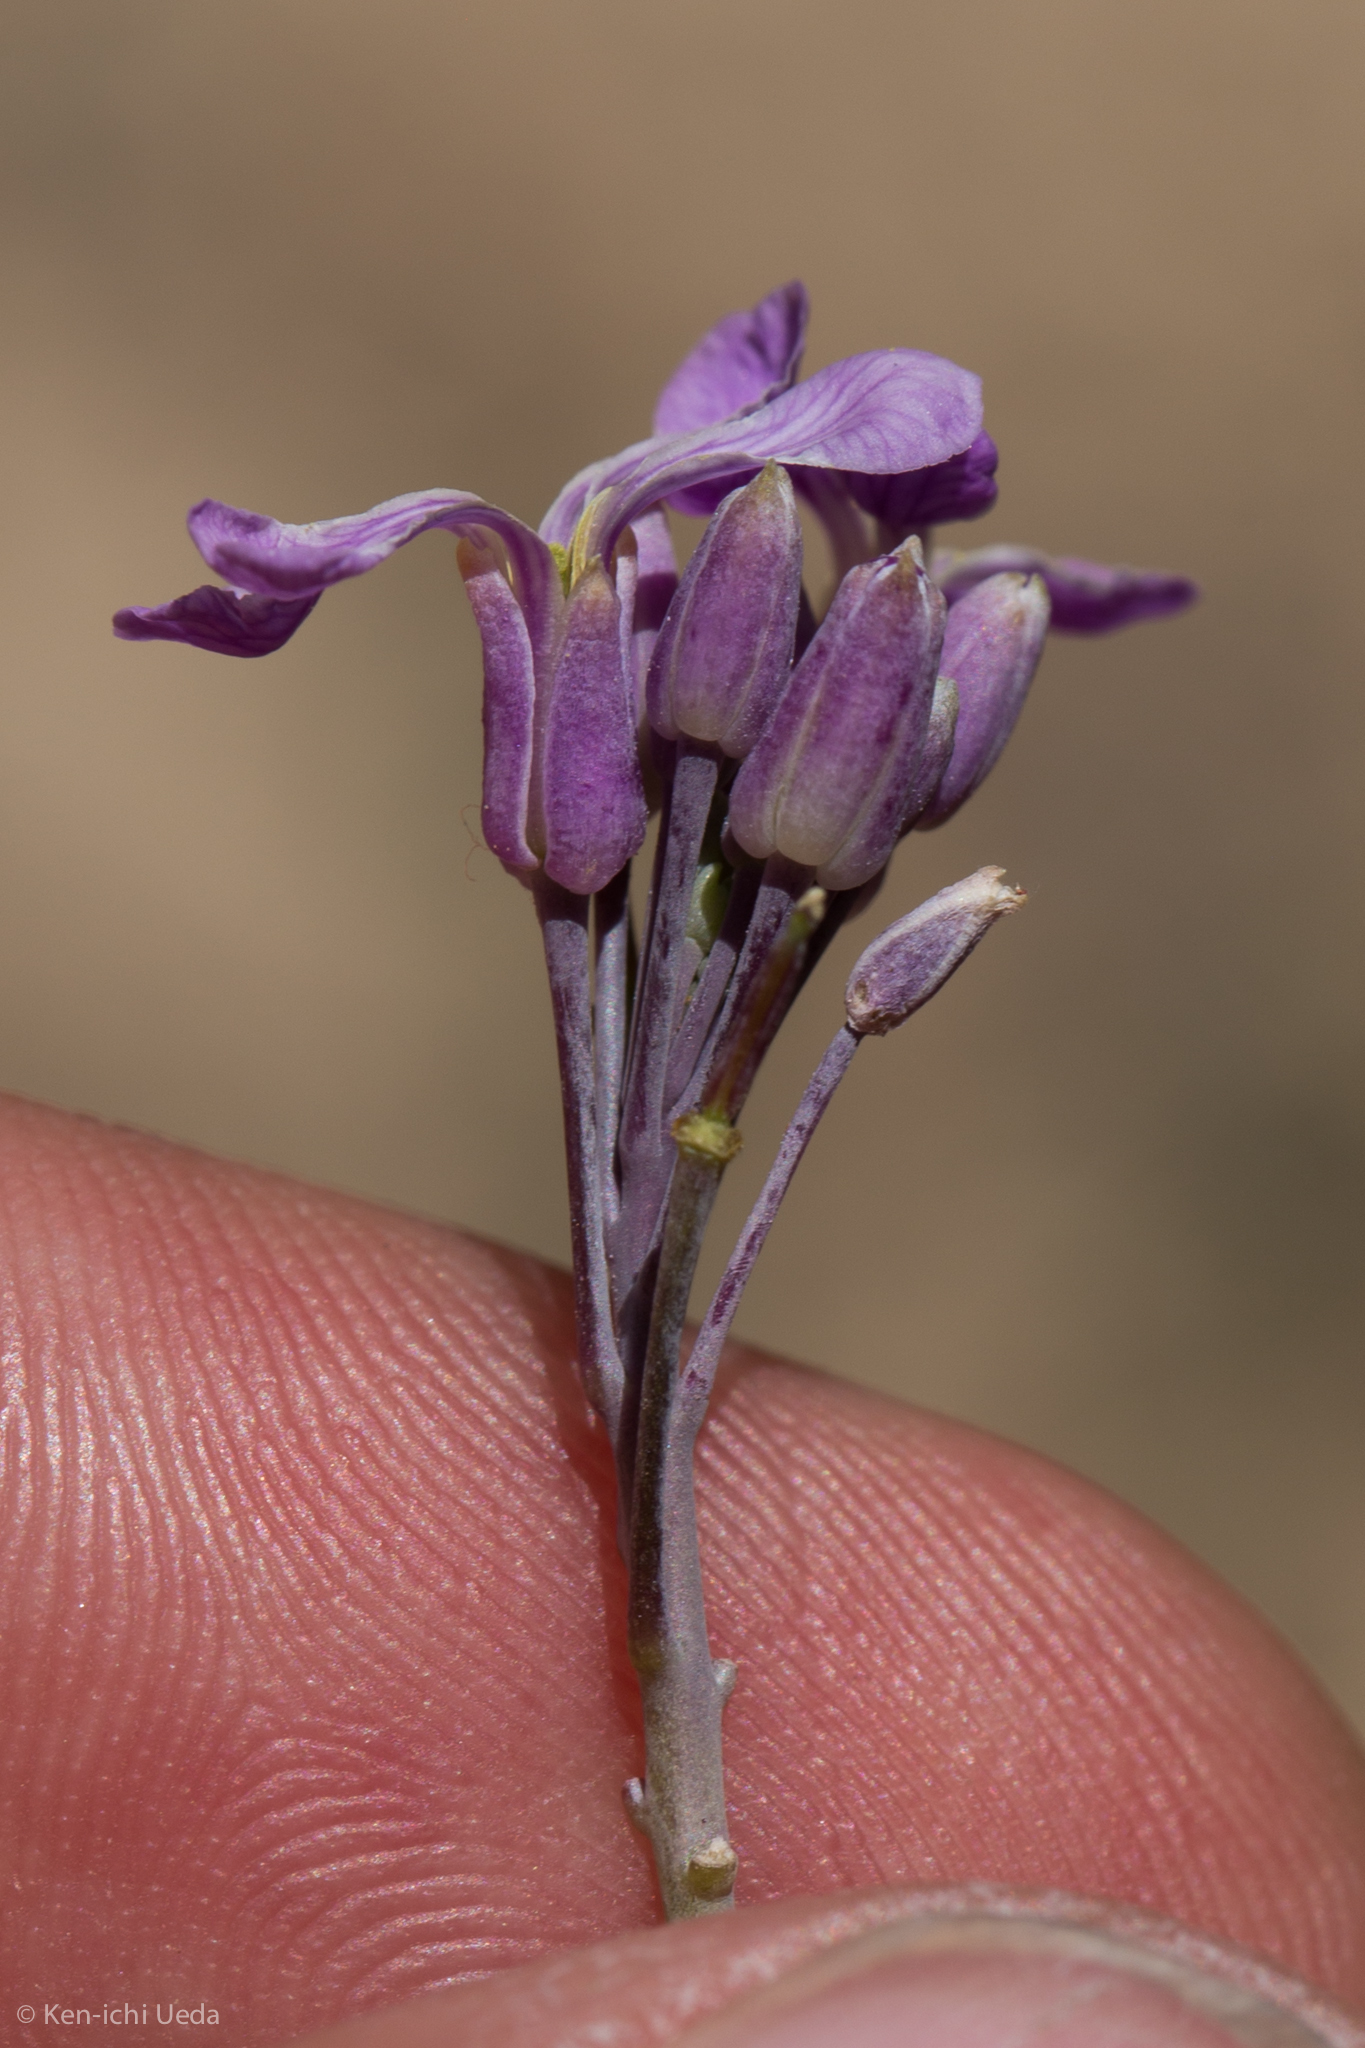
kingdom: Plantae
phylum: Tracheophyta
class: Magnoliopsida
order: Brassicales
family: Brassicaceae
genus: Hesperidanthus
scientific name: Hesperidanthus linearifolius
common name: Slim-leaf plains mustard
